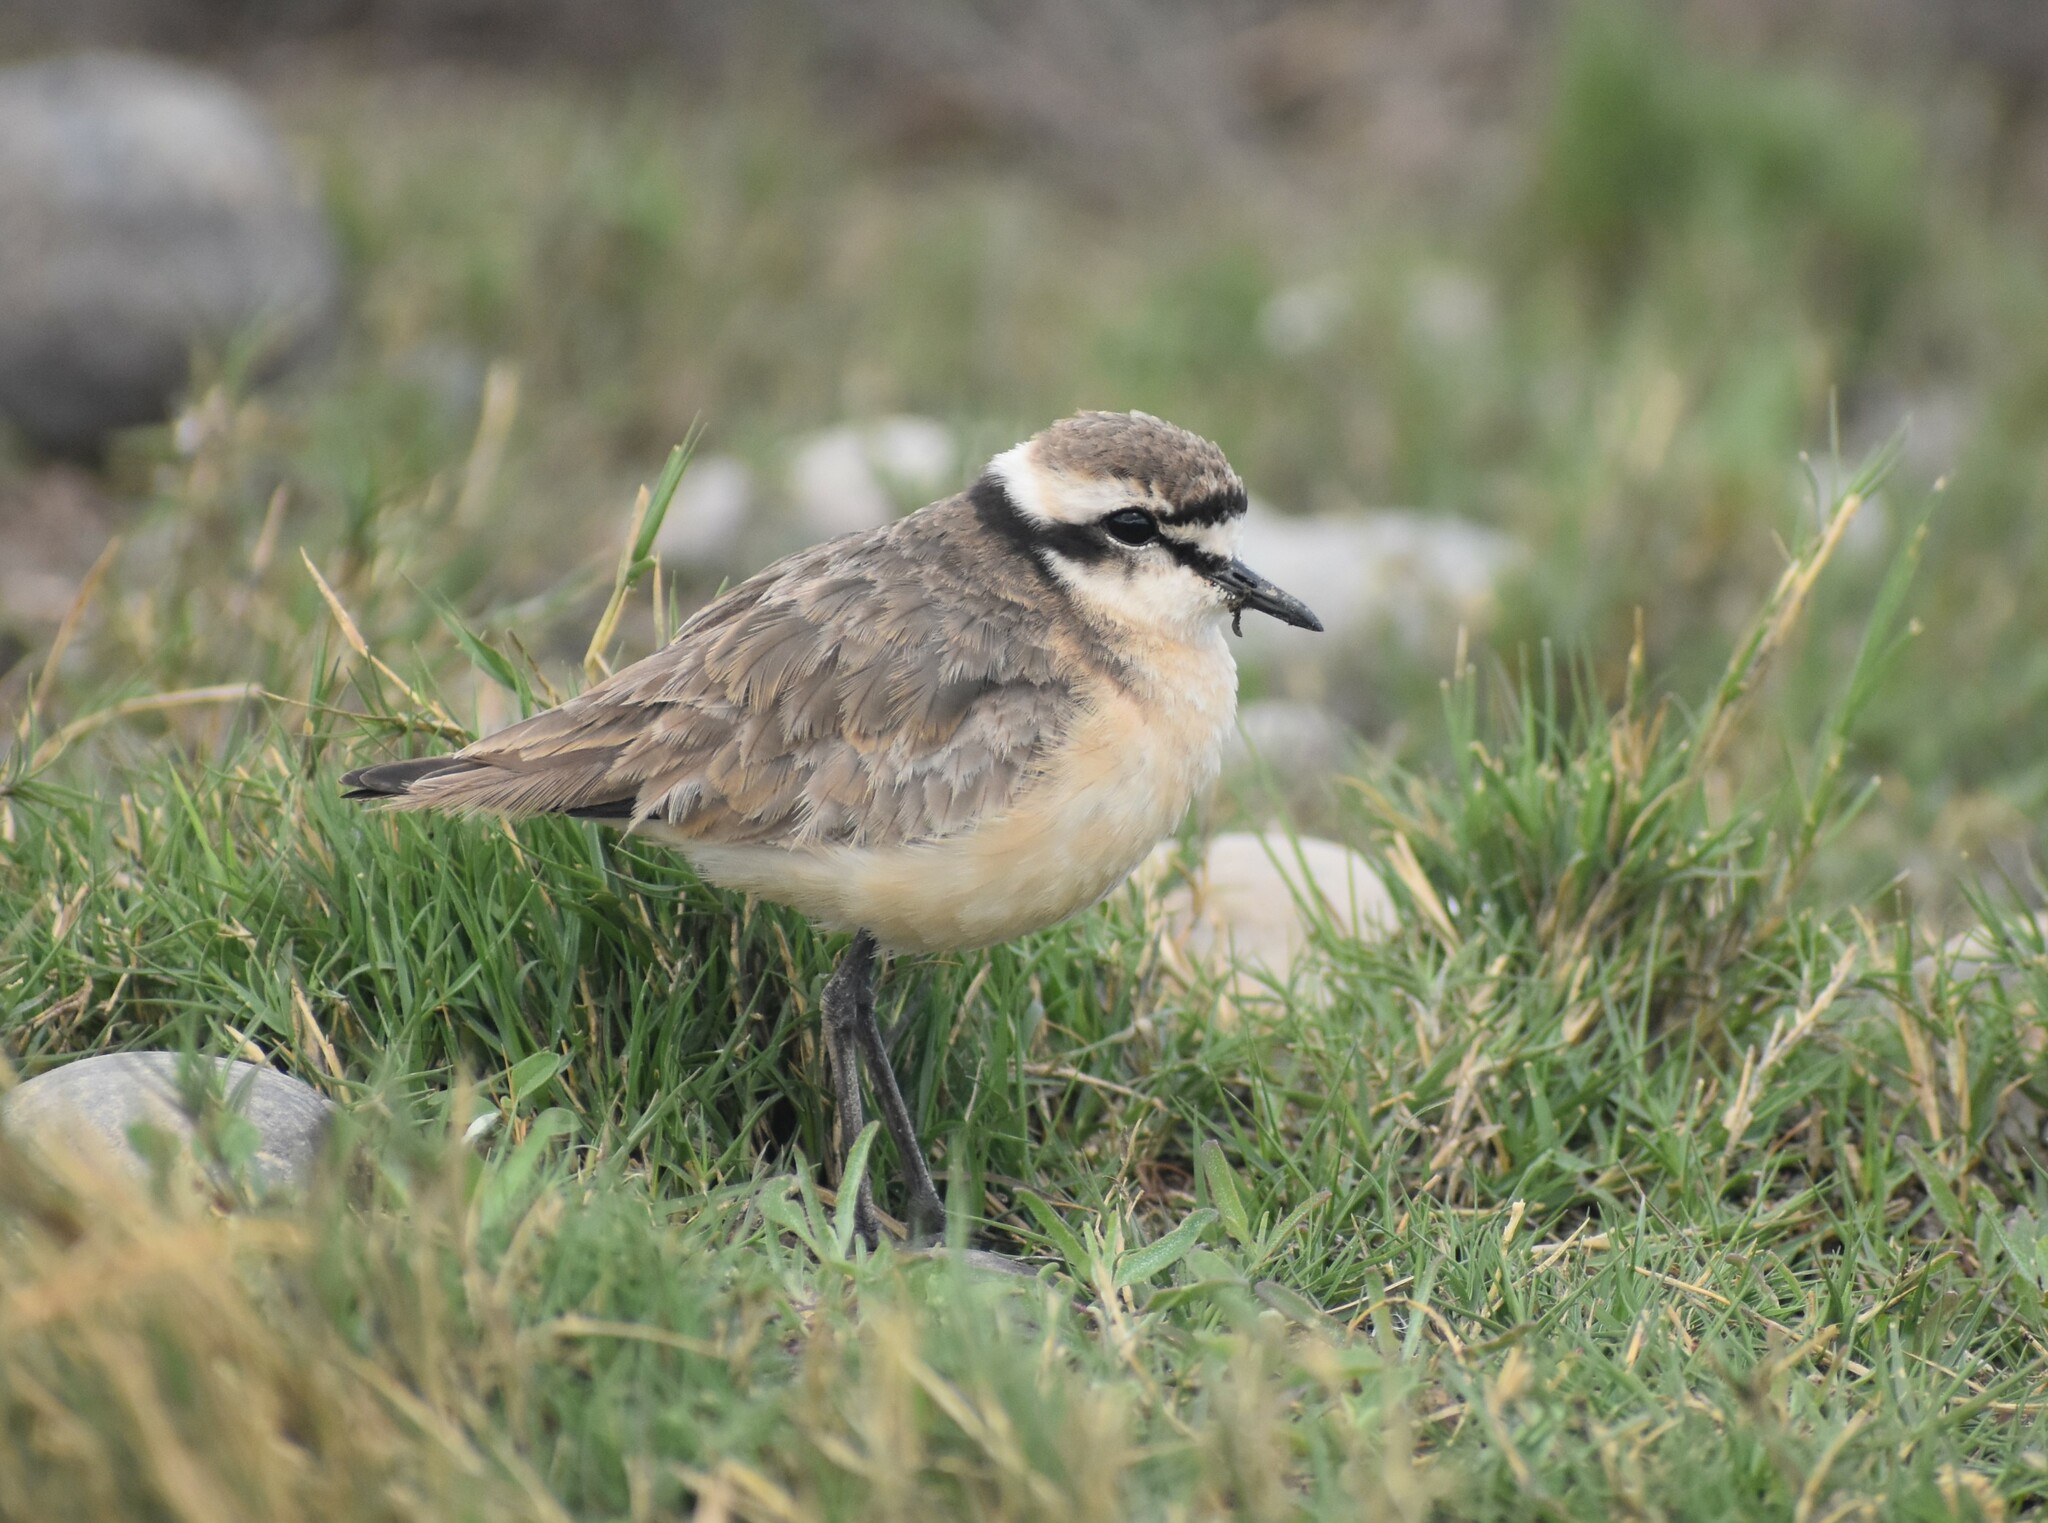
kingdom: Animalia
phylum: Chordata
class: Aves
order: Charadriiformes
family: Charadriidae
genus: Anarhynchus
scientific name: Anarhynchus
